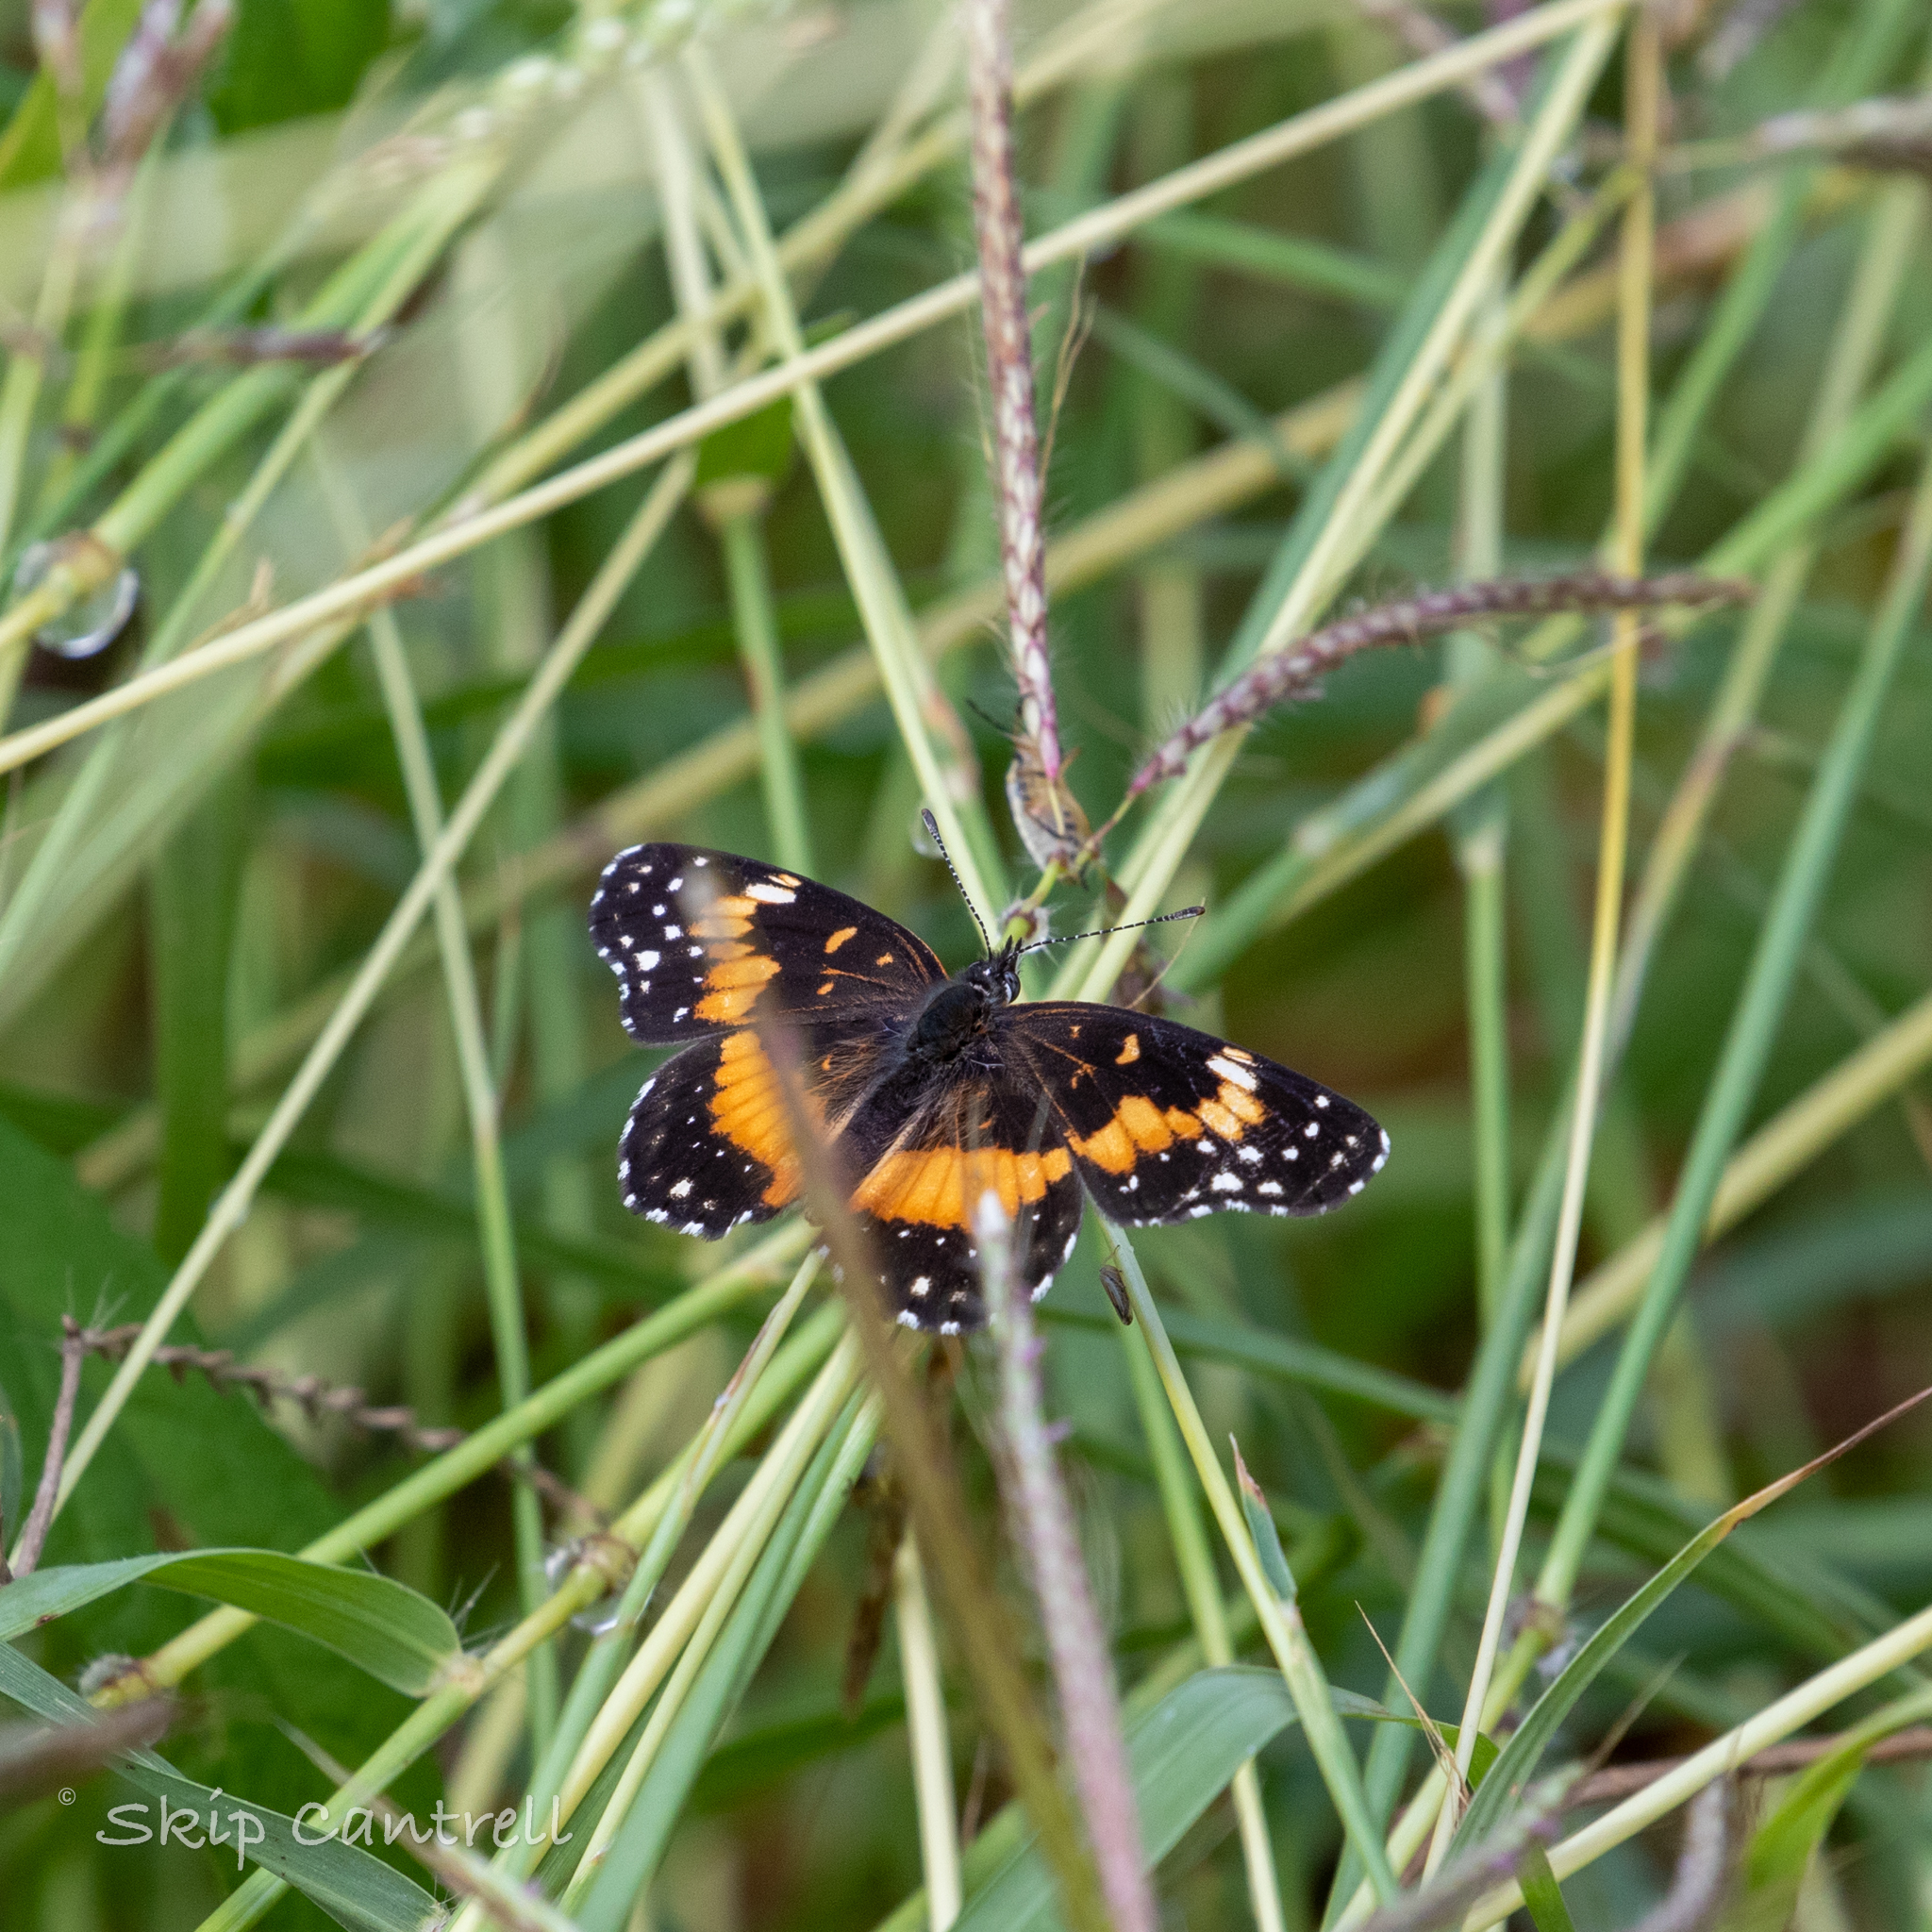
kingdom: Animalia
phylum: Arthropoda
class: Insecta
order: Lepidoptera
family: Nymphalidae
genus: Chlosyne
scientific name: Chlosyne lacinia
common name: Bordered patch
